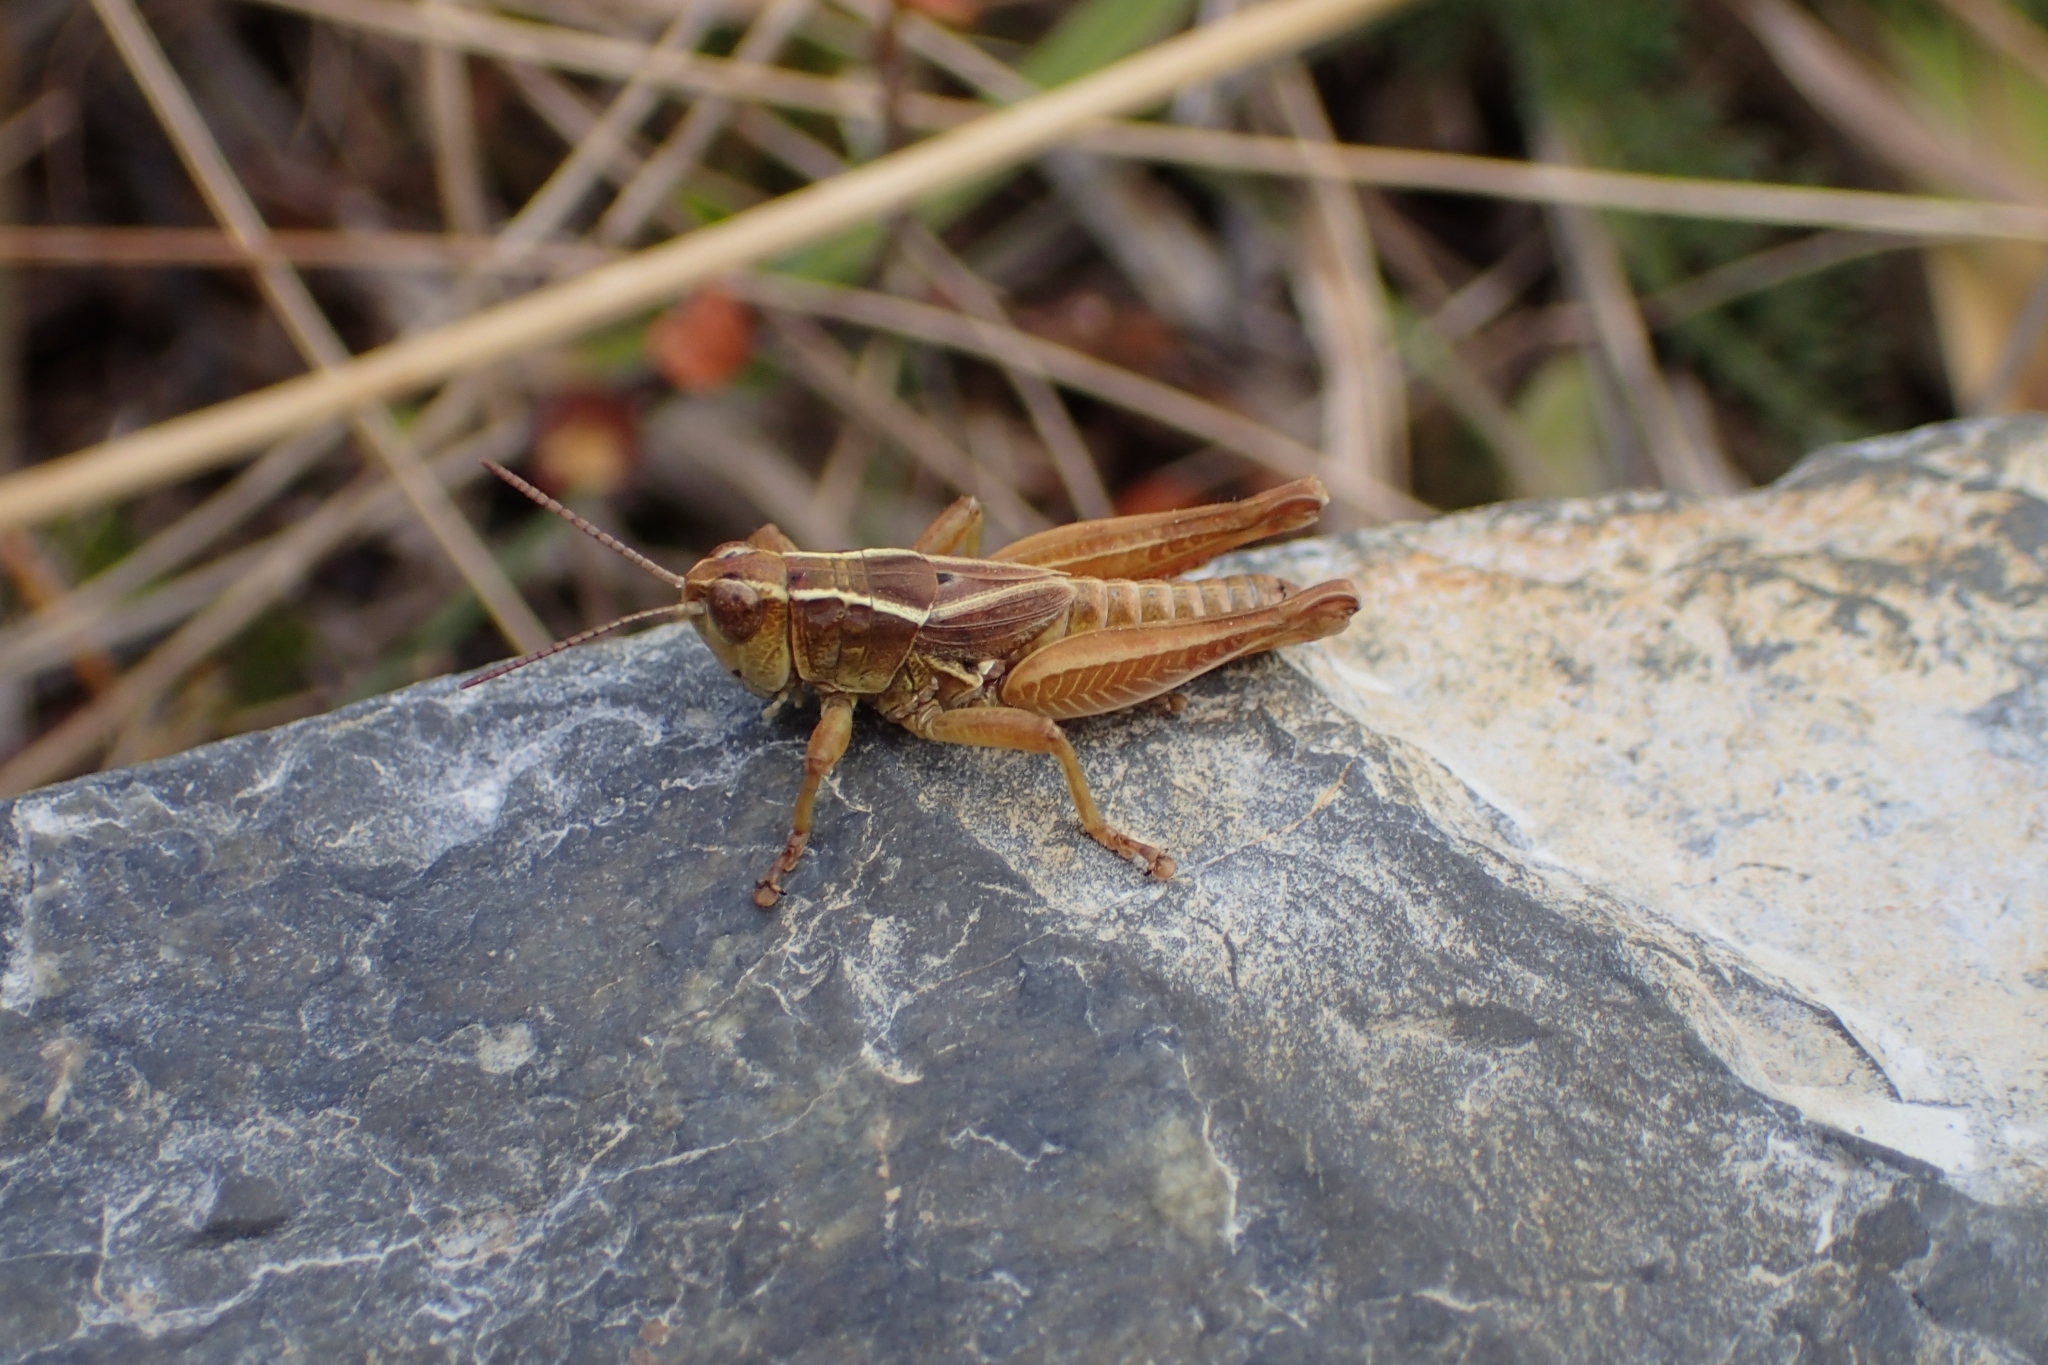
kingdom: Animalia
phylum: Arthropoda
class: Insecta
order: Orthoptera
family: Acrididae
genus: Phaulacridium
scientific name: Phaulacridium marginale
